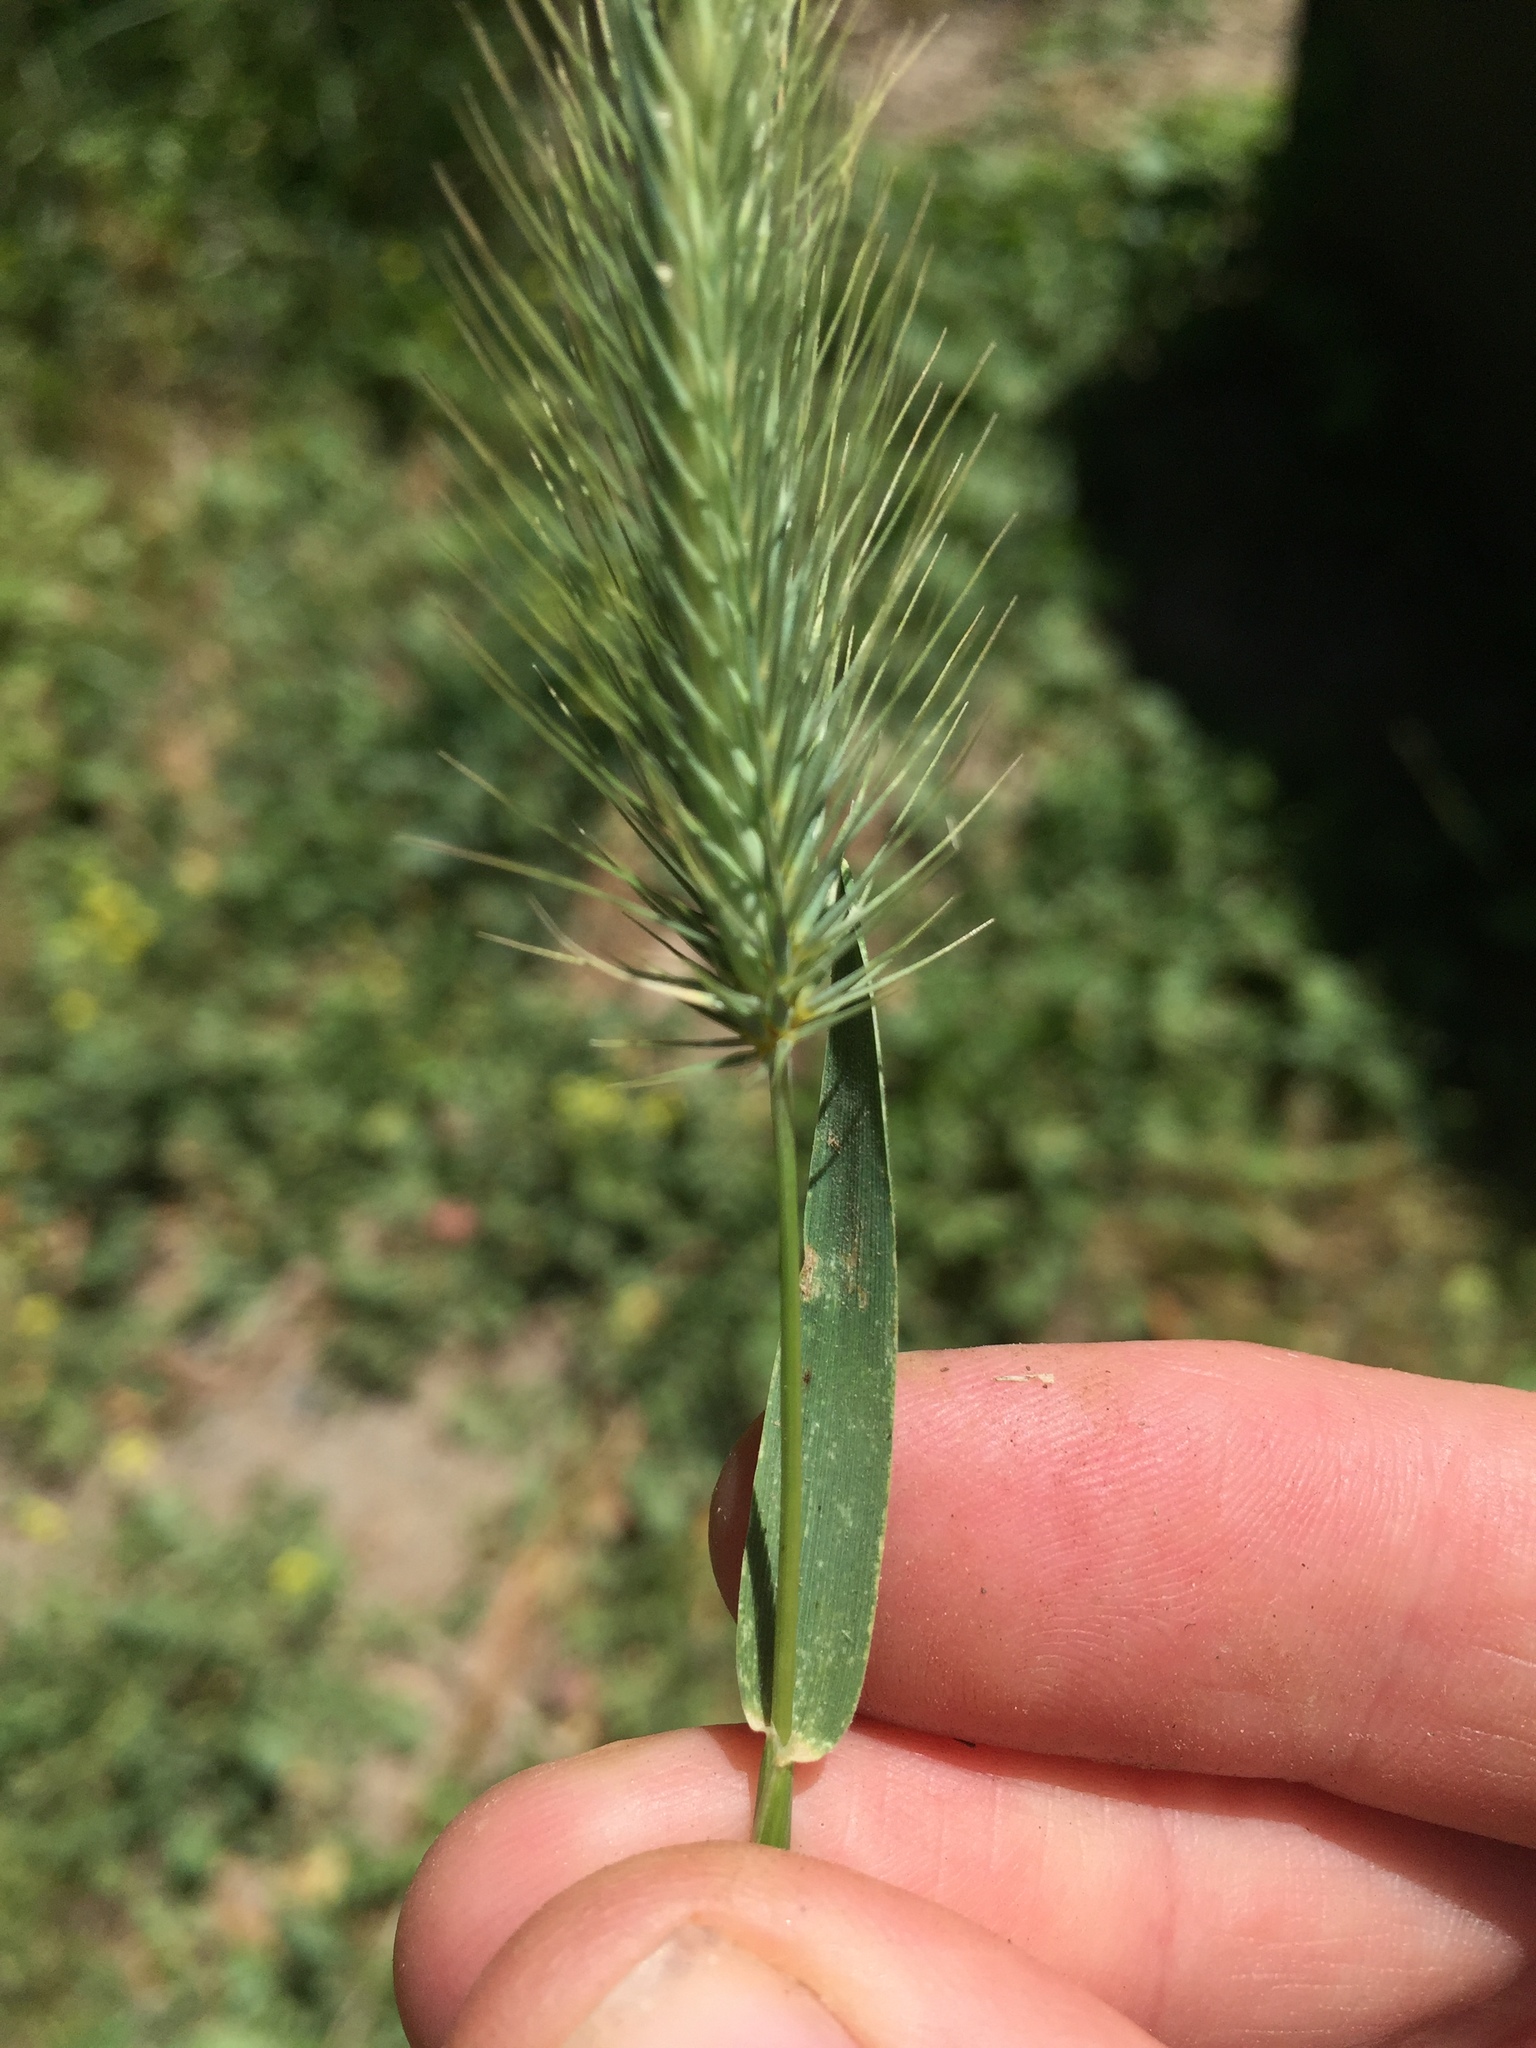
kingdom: Plantae
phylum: Tracheophyta
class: Liliopsida
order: Poales
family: Poaceae
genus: Hordeum
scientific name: Hordeum marinum
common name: Sea barley
